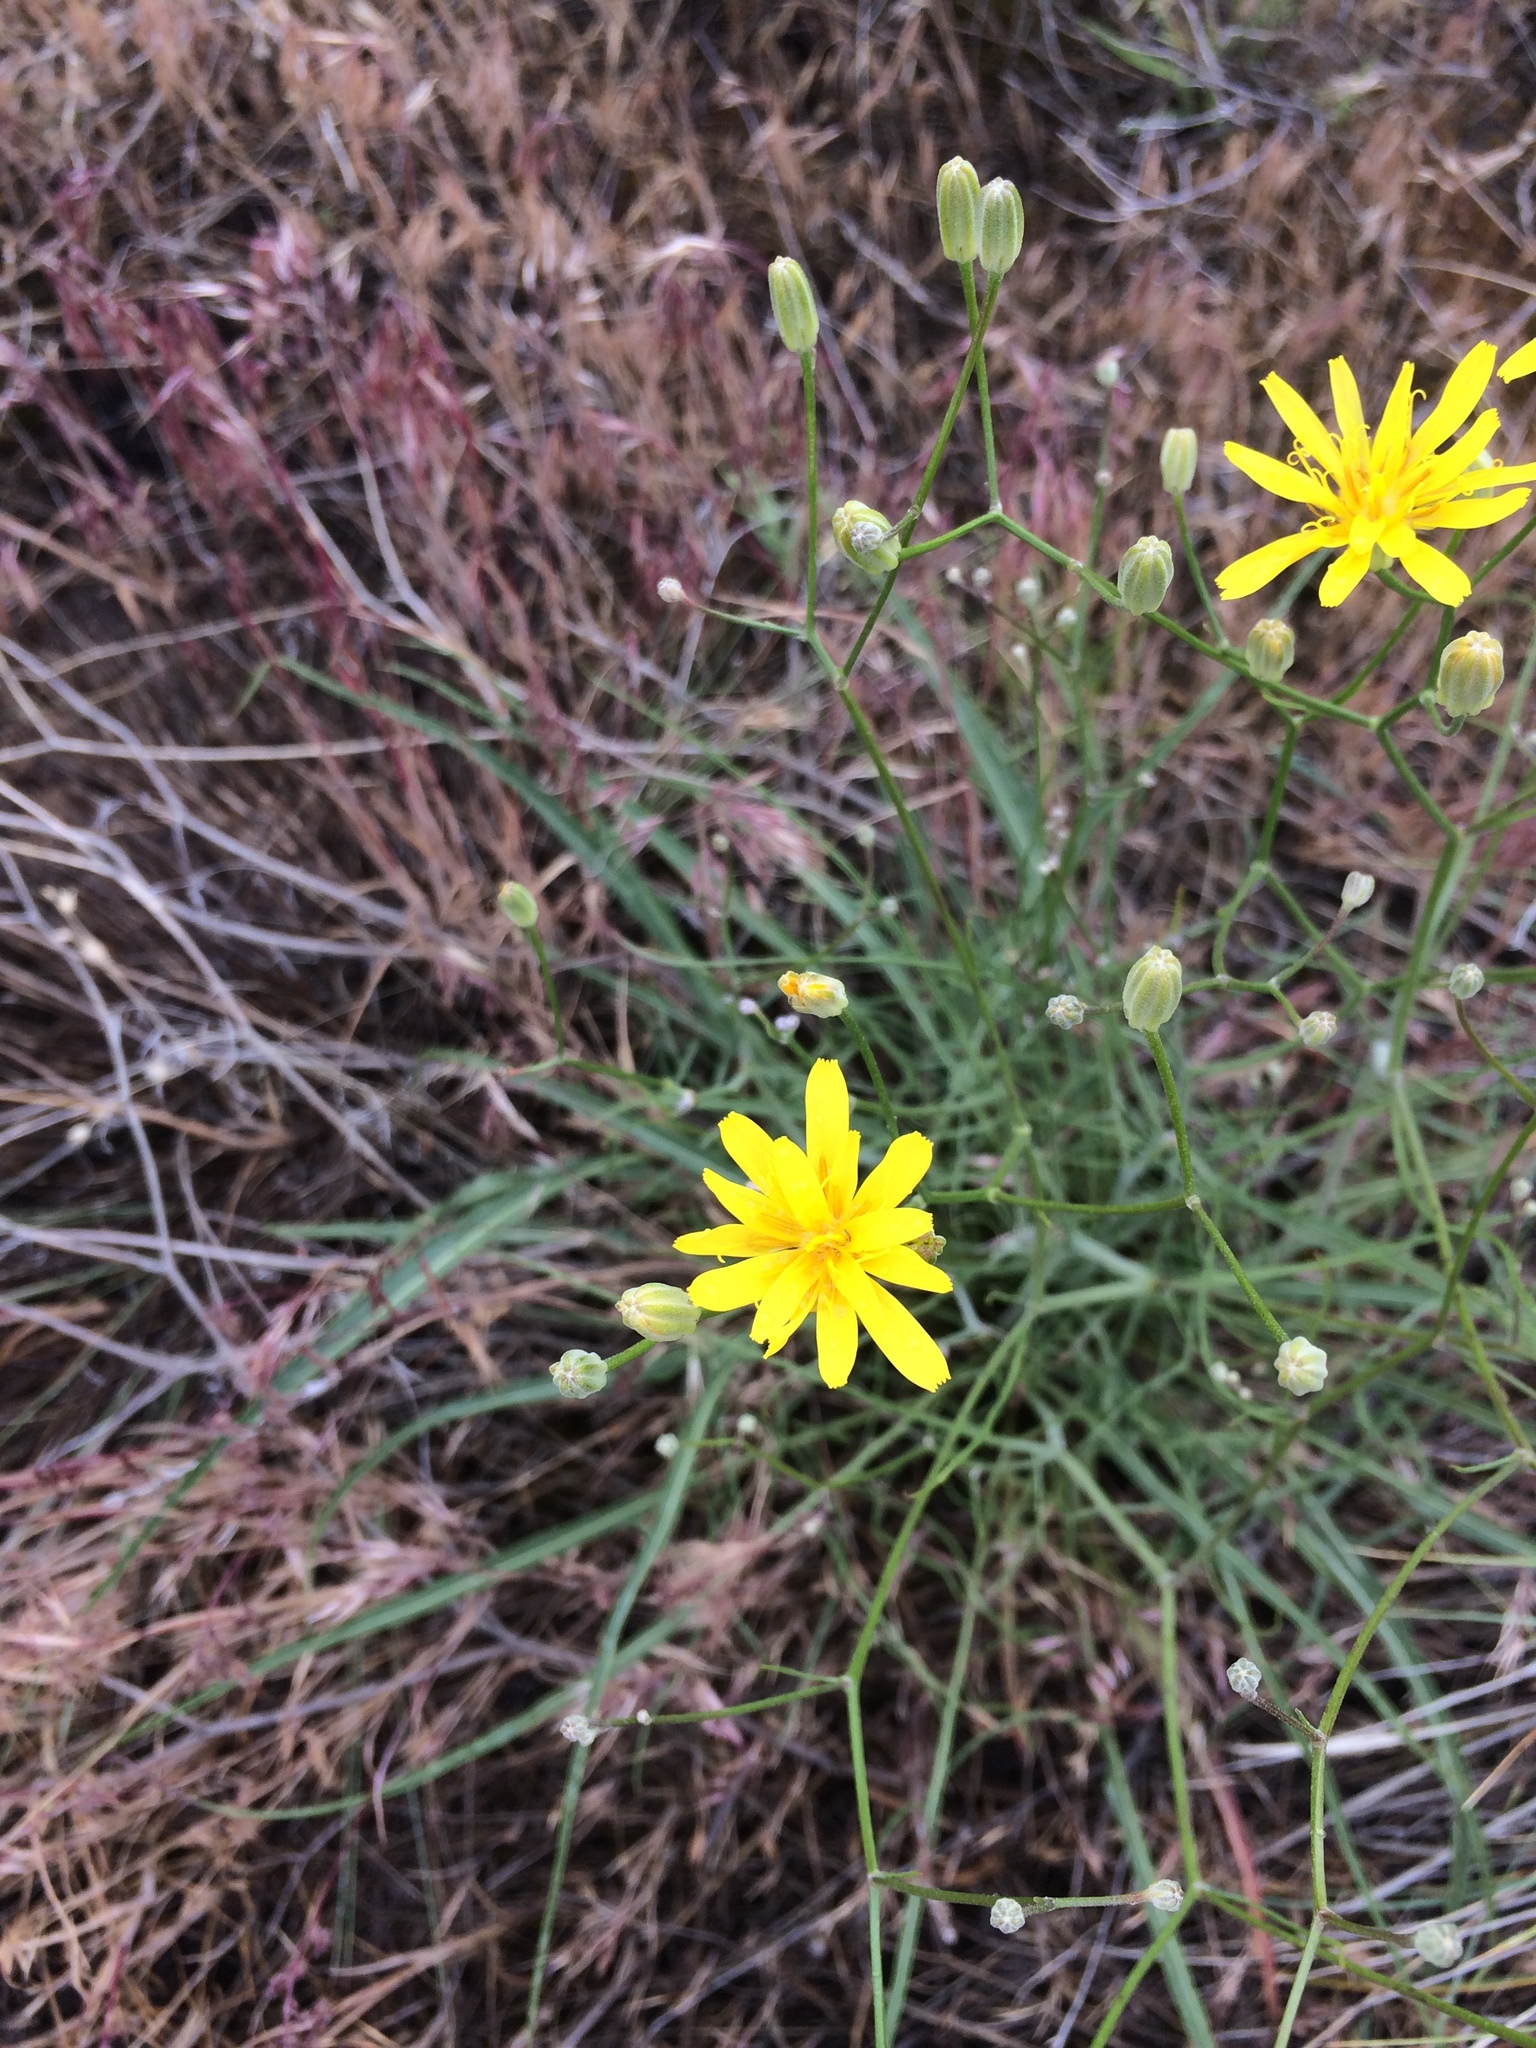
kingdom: Plantae
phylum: Tracheophyta
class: Magnoliopsida
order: Asterales
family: Asteraceae
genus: Crepis
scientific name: Crepis atribarba
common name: Dark hawk's-beard
